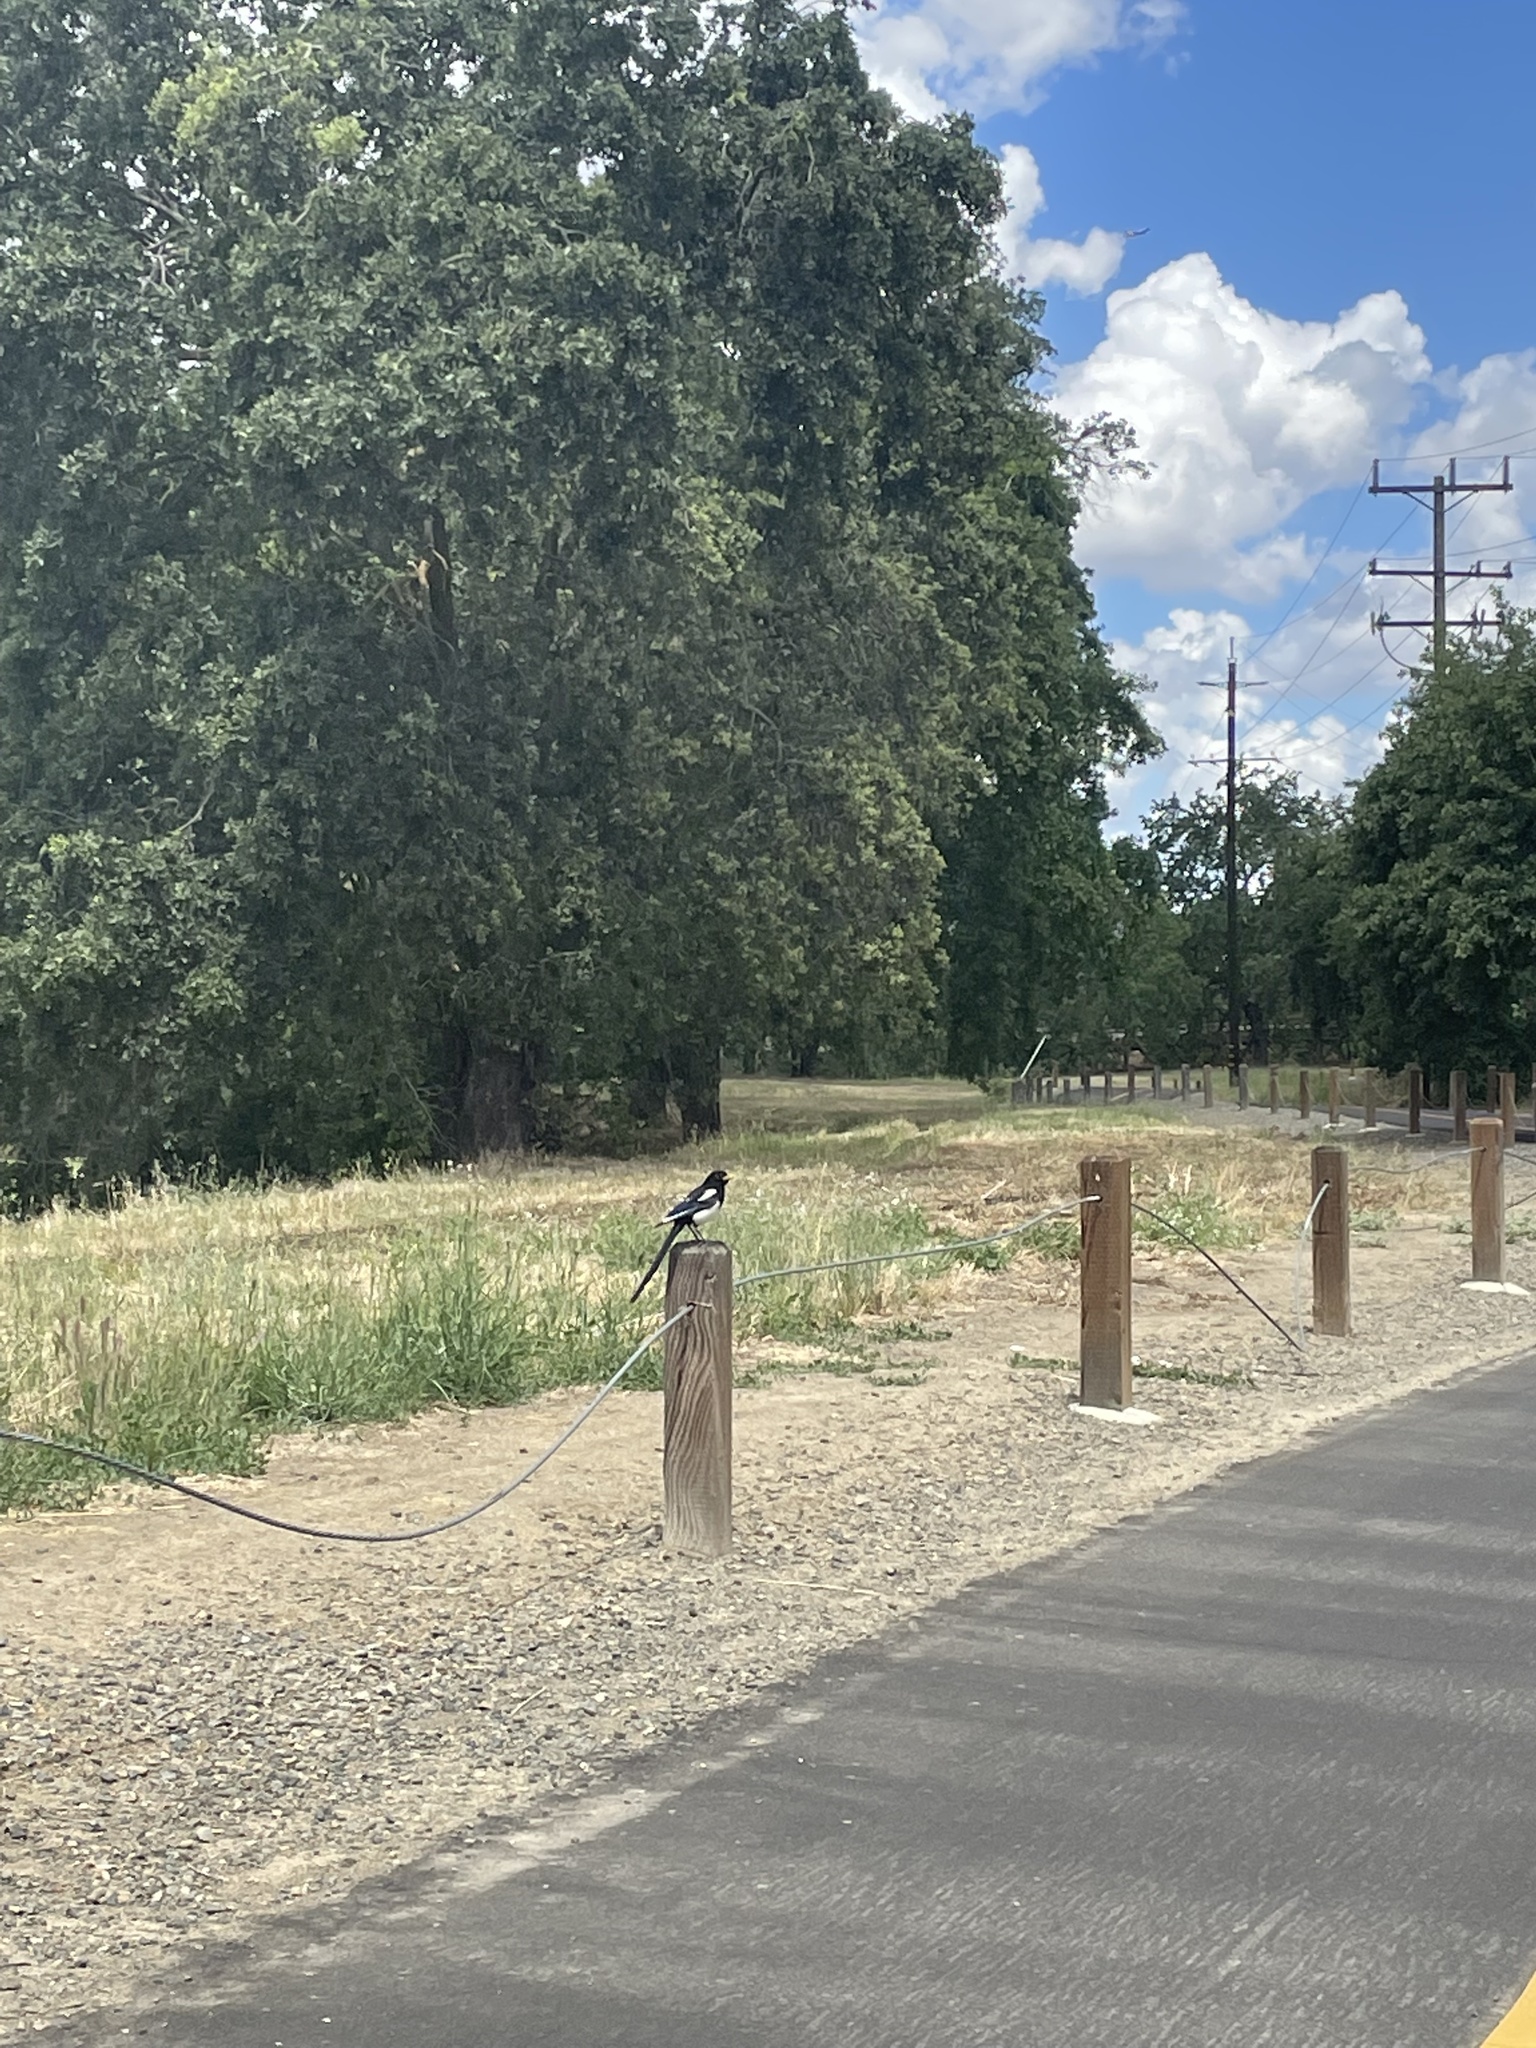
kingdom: Animalia
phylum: Chordata
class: Aves
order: Passeriformes
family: Corvidae
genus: Pica
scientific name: Pica nuttalli
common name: Yellow-billed magpie
